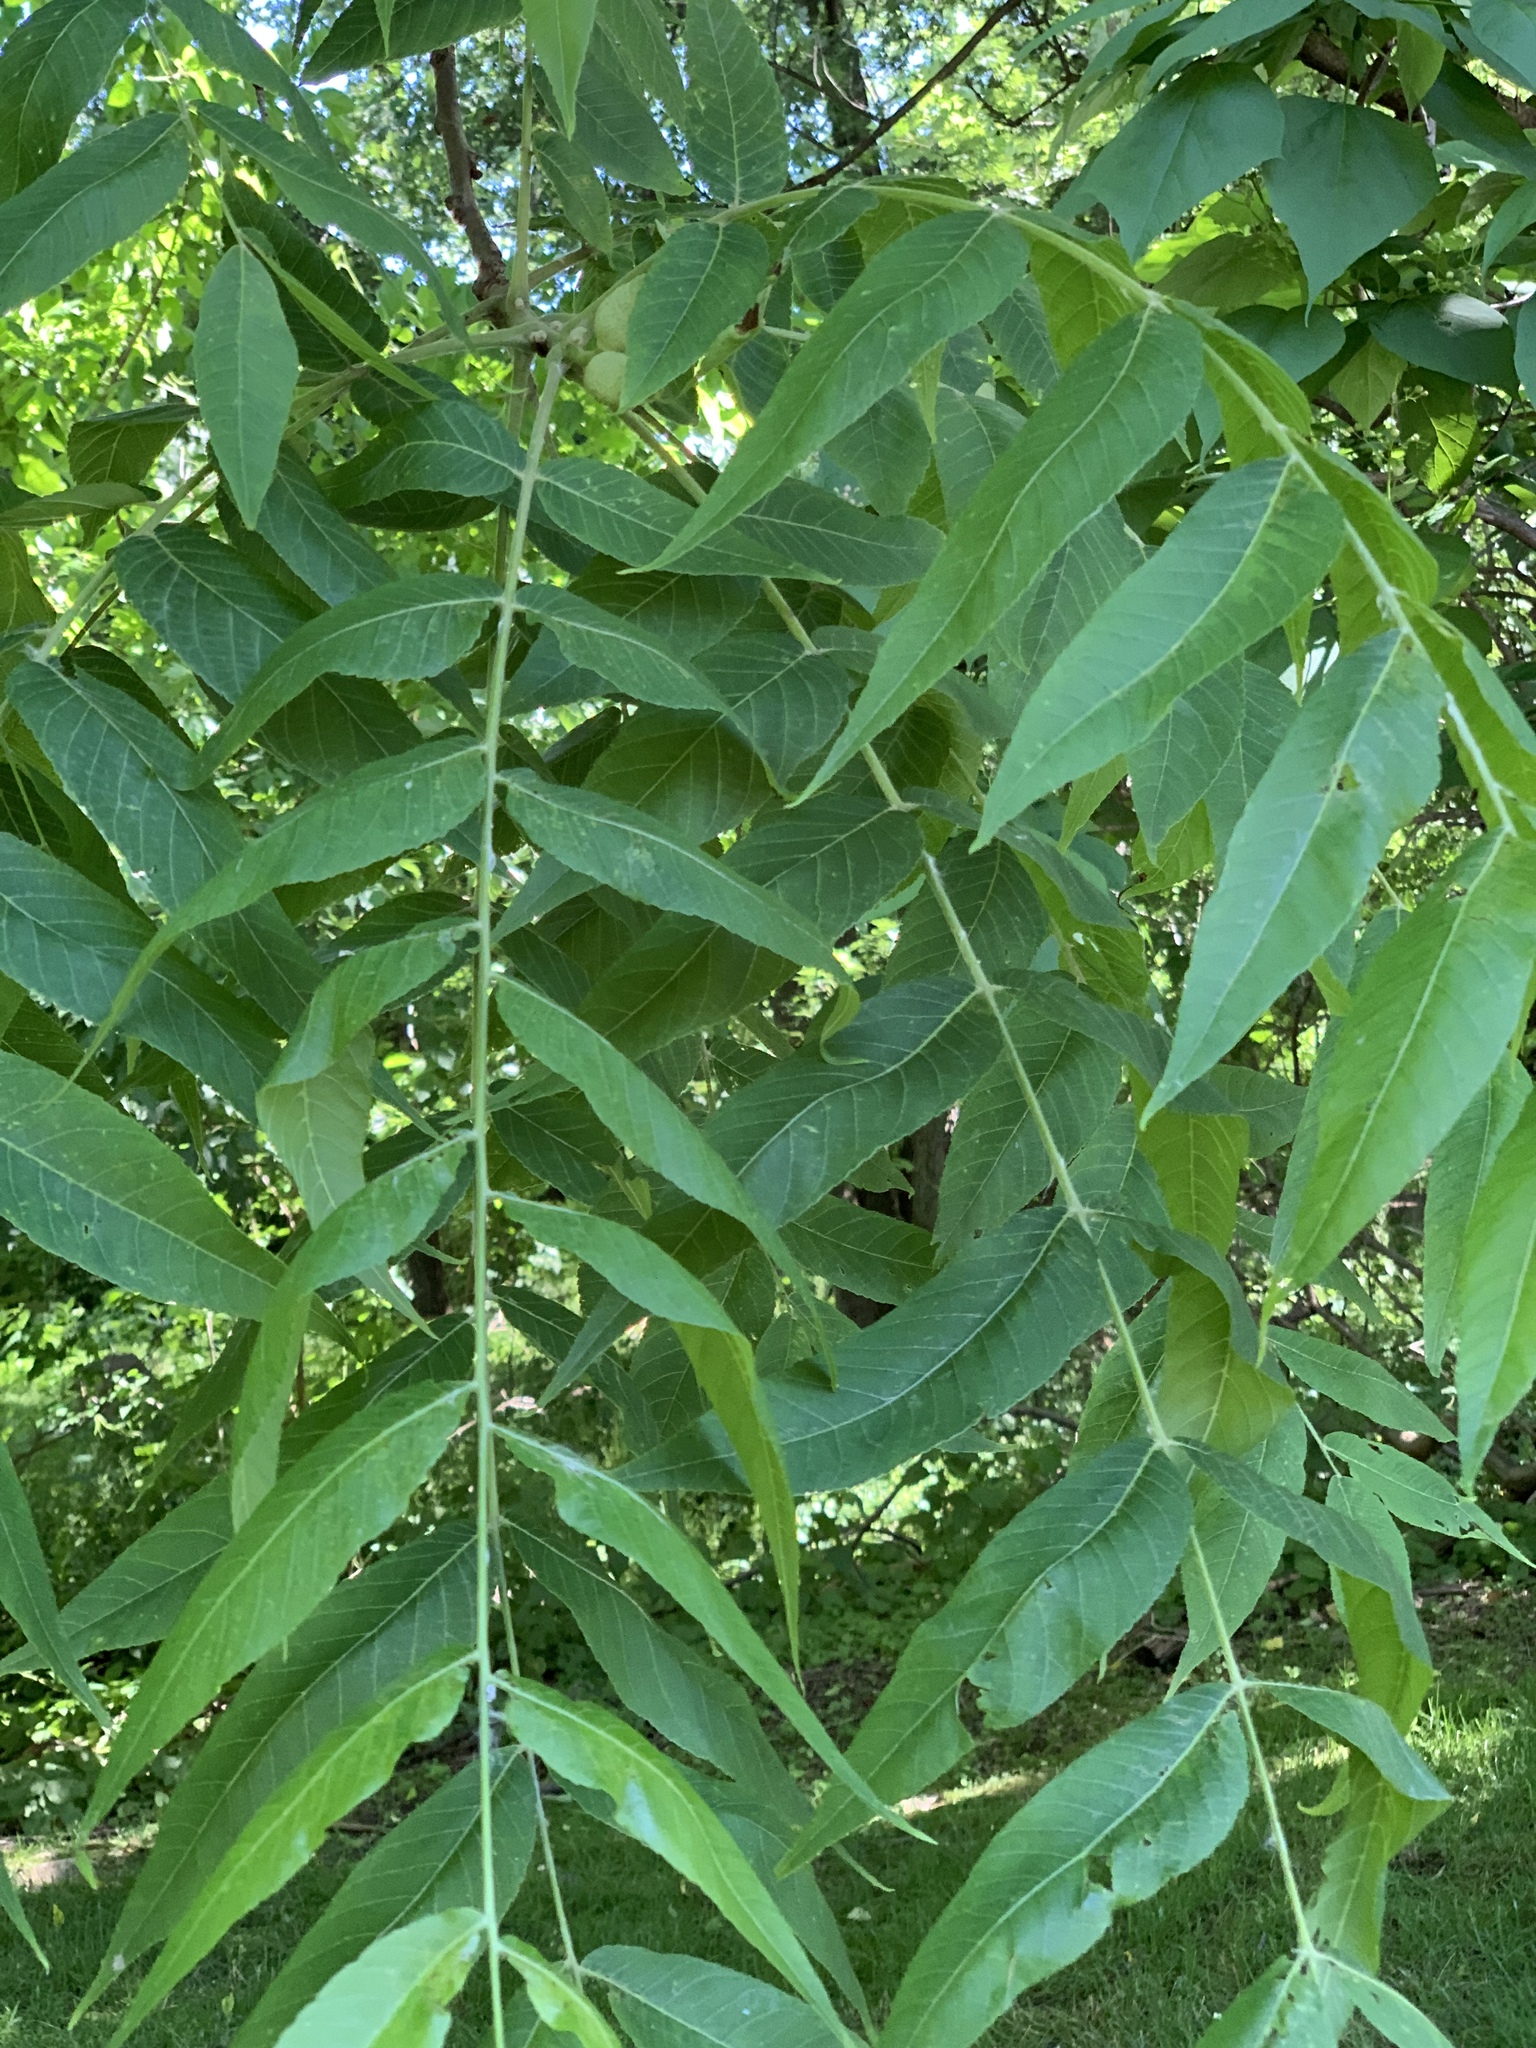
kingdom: Plantae
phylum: Tracheophyta
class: Magnoliopsida
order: Fagales
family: Juglandaceae
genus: Juglans
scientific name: Juglans nigra
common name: Black walnut
